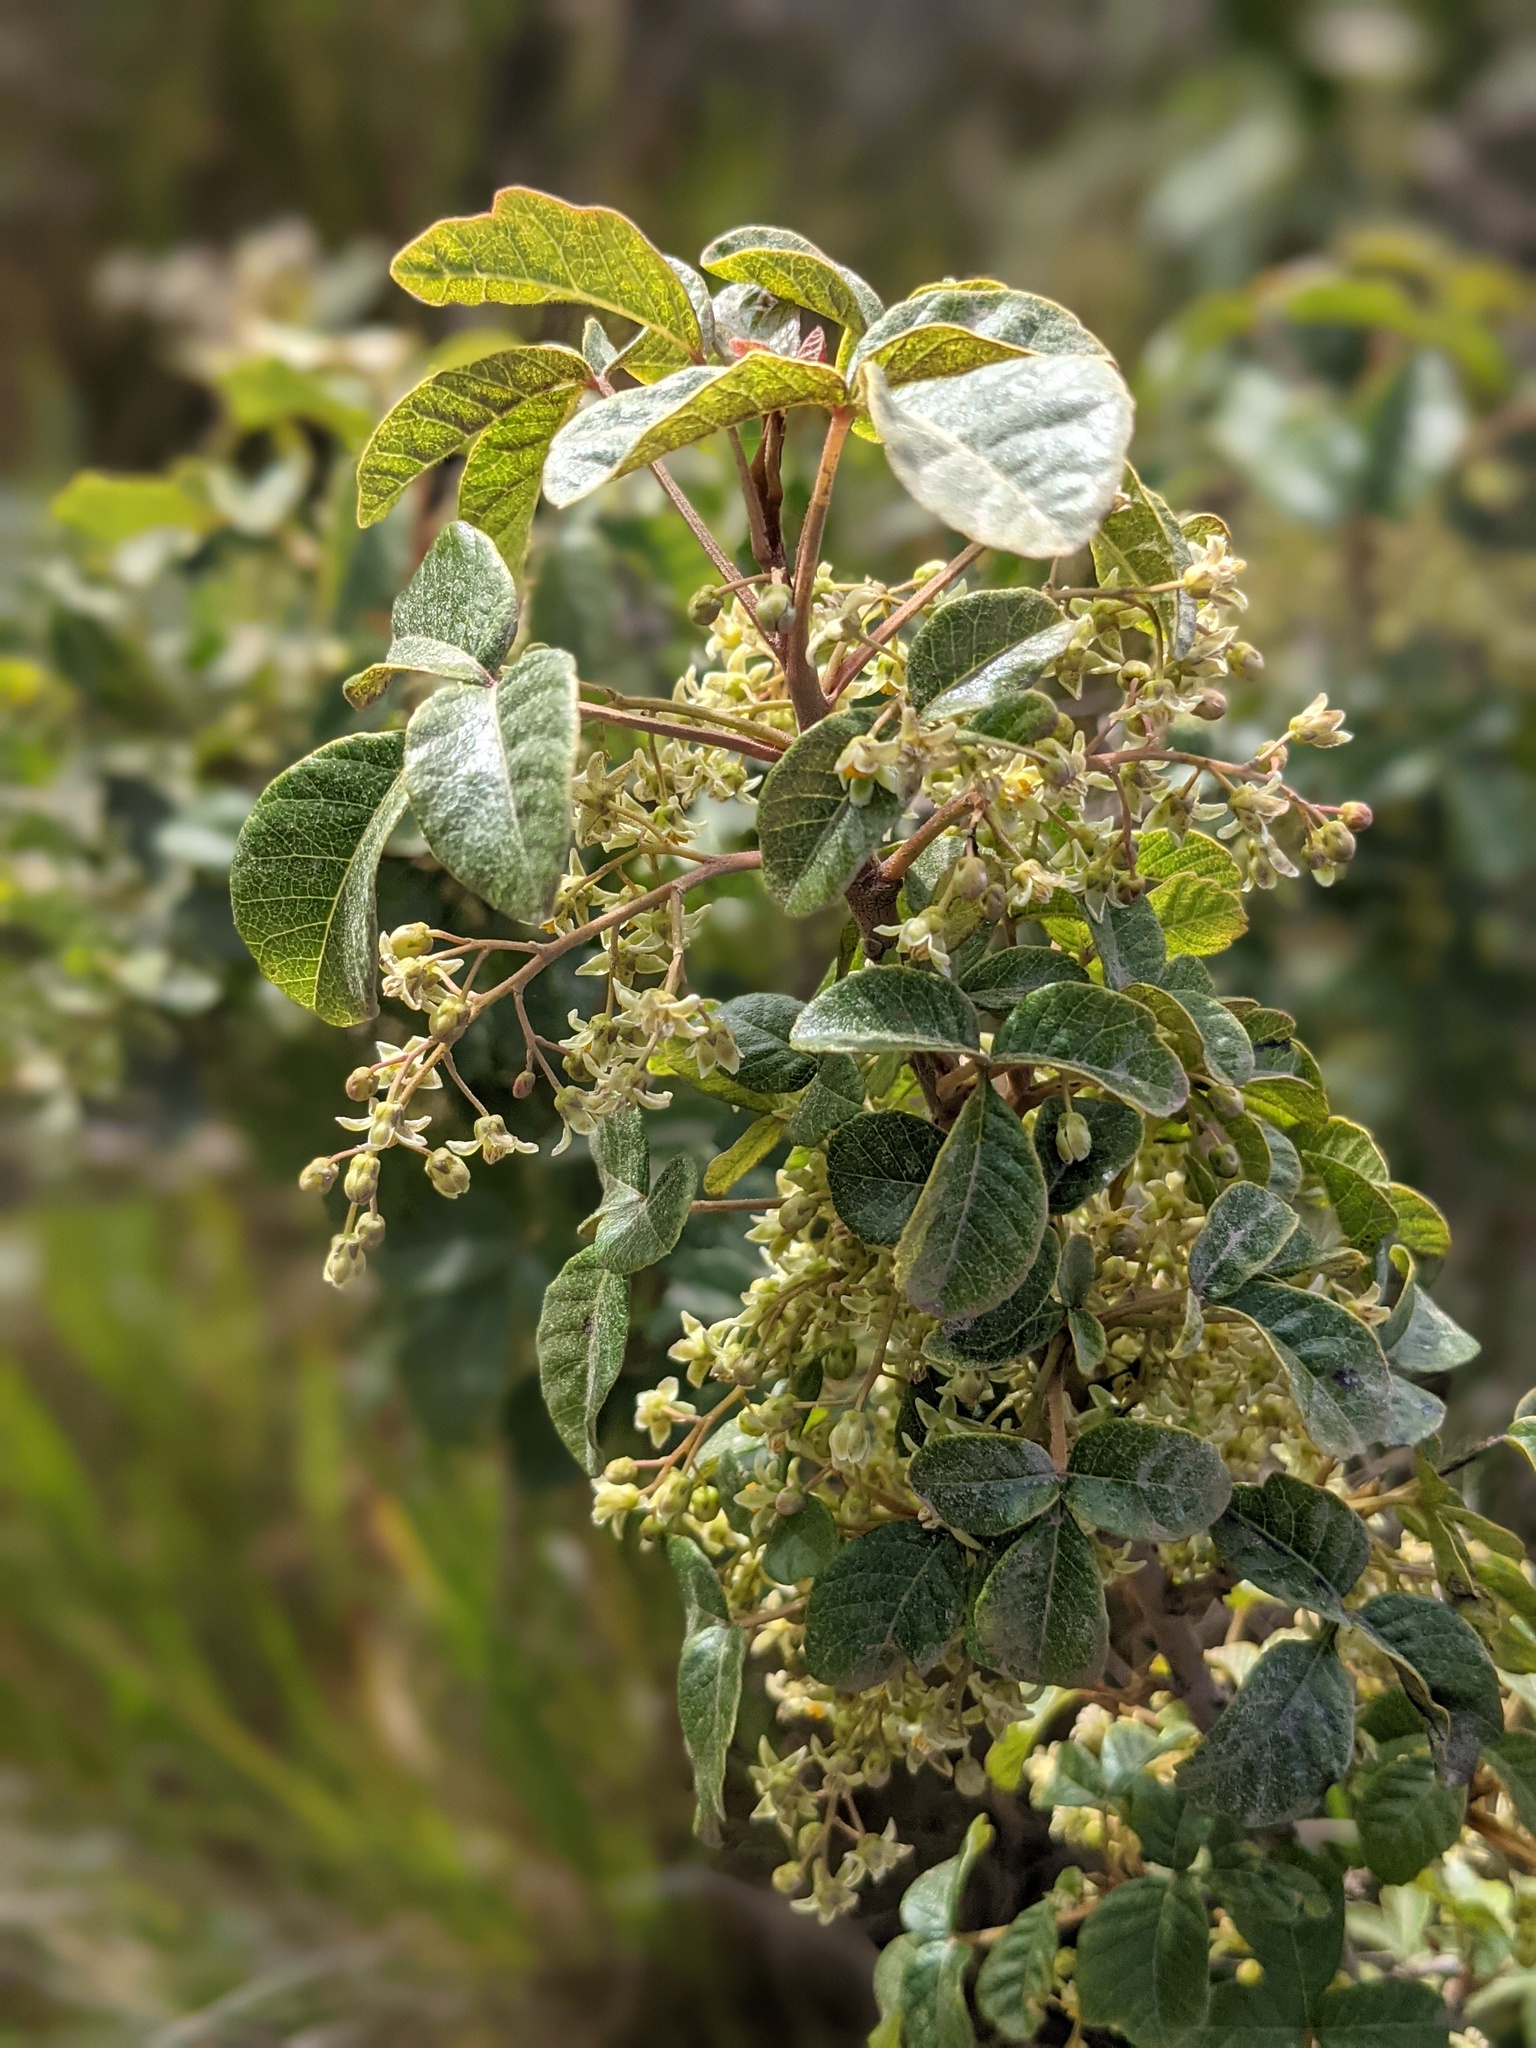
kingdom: Plantae
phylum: Tracheophyta
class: Magnoliopsida
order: Sapindales
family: Anacardiaceae
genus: Toxicodendron
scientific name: Toxicodendron diversilobum
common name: Pacific poison-oak
